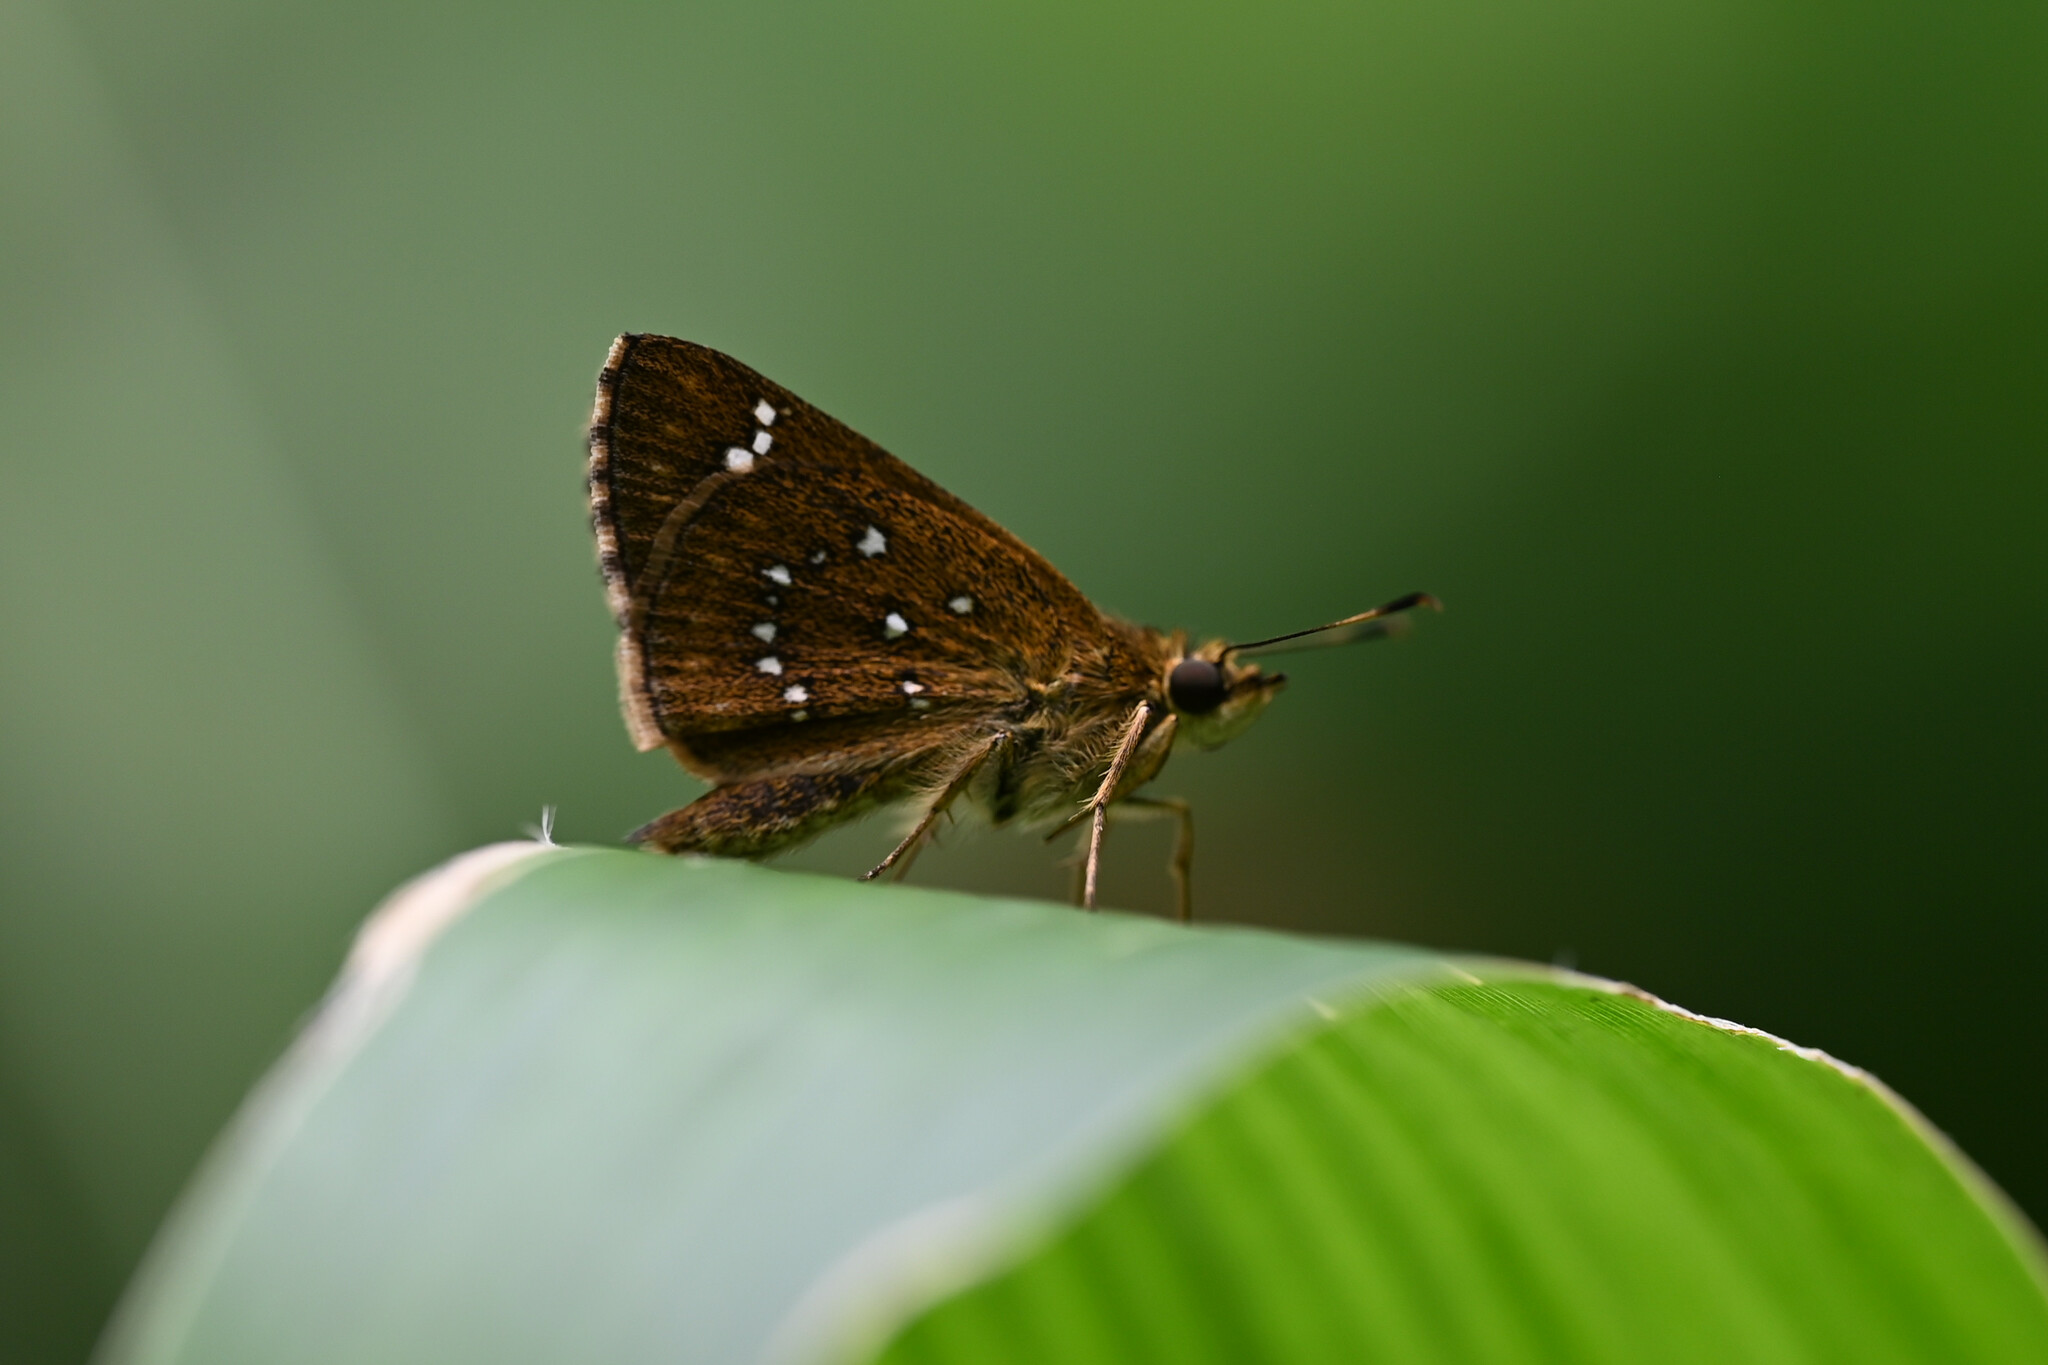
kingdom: Animalia
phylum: Arthropoda
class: Insecta
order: Lepidoptera
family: Hesperiidae
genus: Arnetta
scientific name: Arnetta atkinsoni
